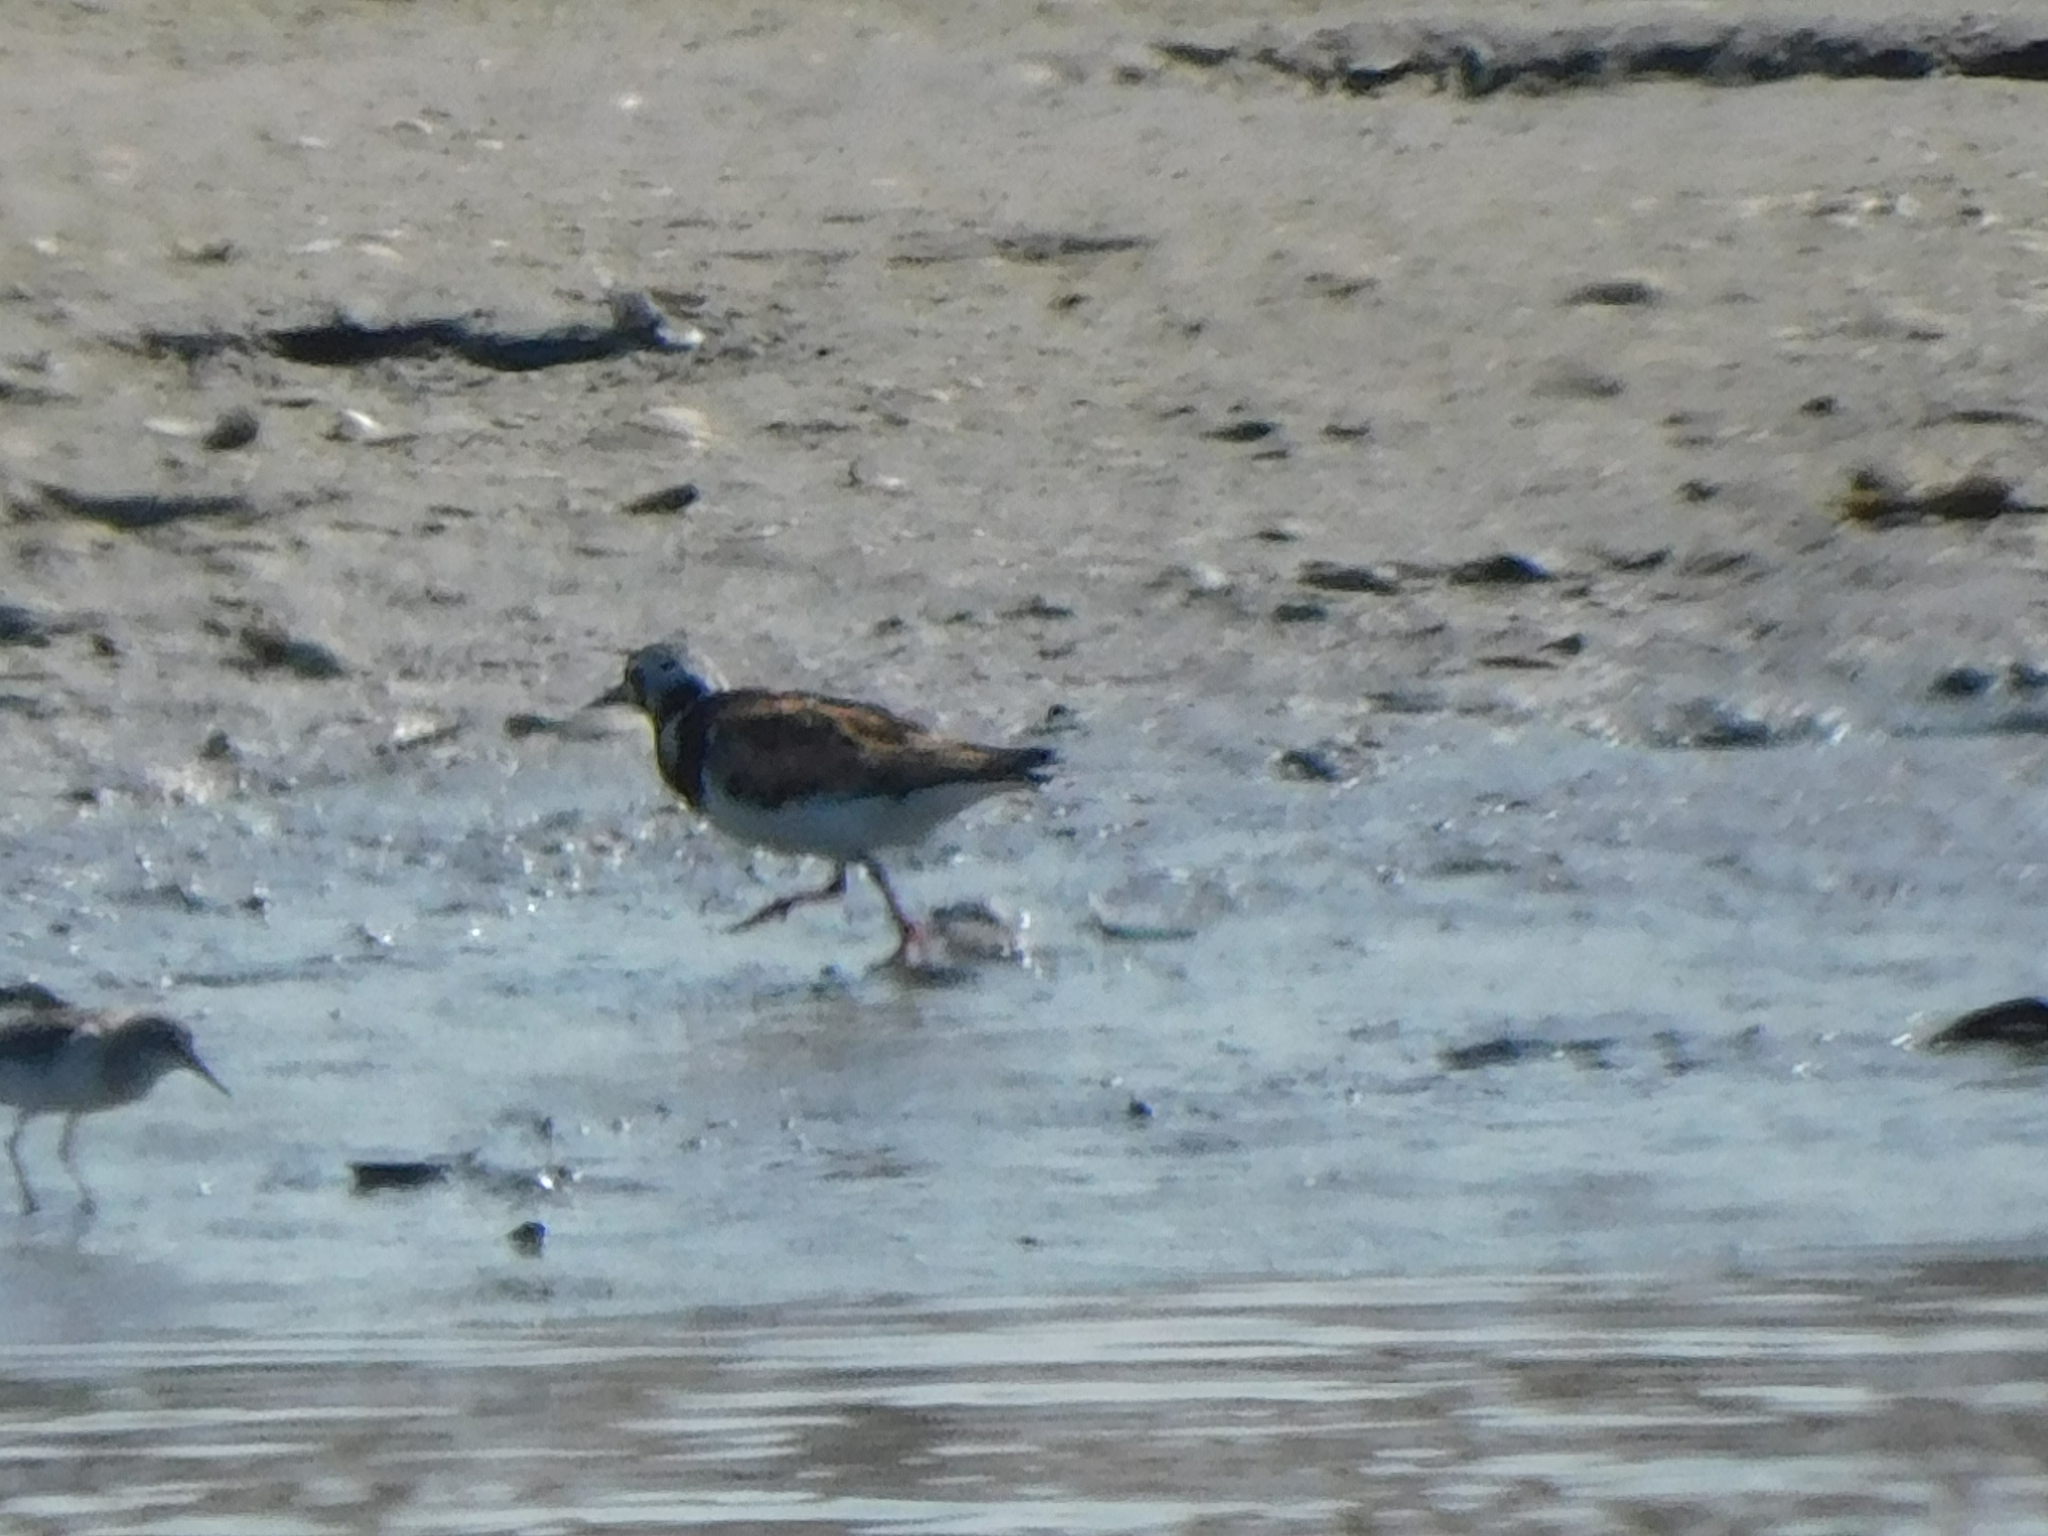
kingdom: Animalia
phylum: Chordata
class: Aves
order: Charadriiformes
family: Scolopacidae
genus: Arenaria
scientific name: Arenaria interpres
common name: Ruddy turnstone
